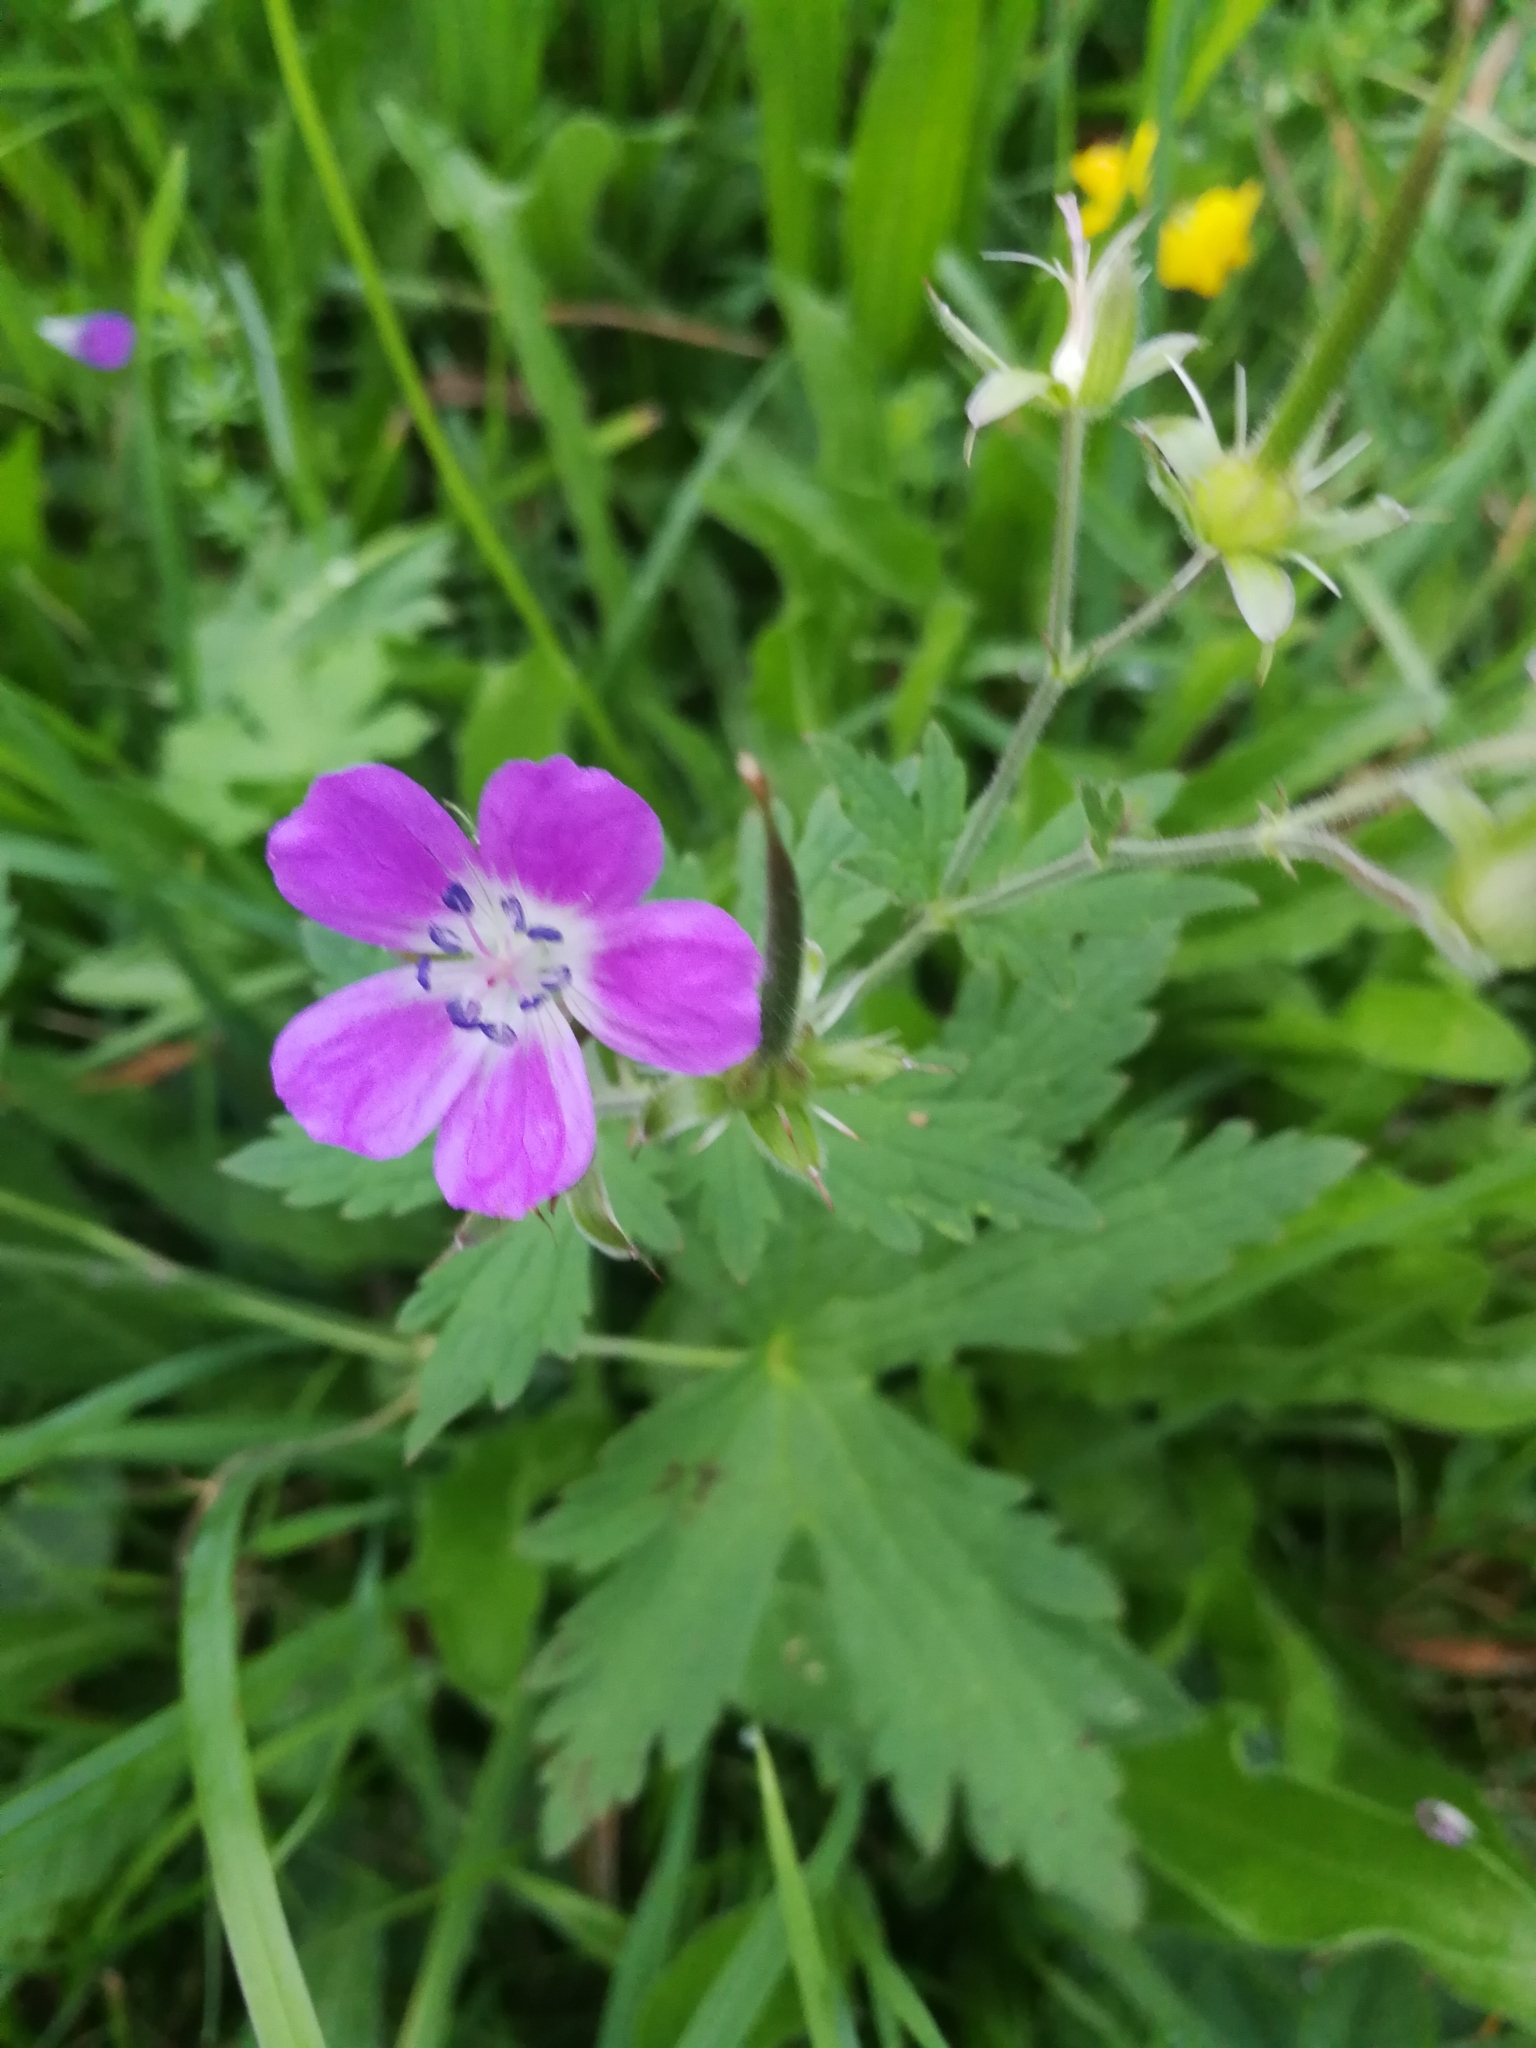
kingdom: Plantae
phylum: Tracheophyta
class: Magnoliopsida
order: Geraniales
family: Geraniaceae
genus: Geranium
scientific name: Geranium sylvaticum
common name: Wood crane's-bill
